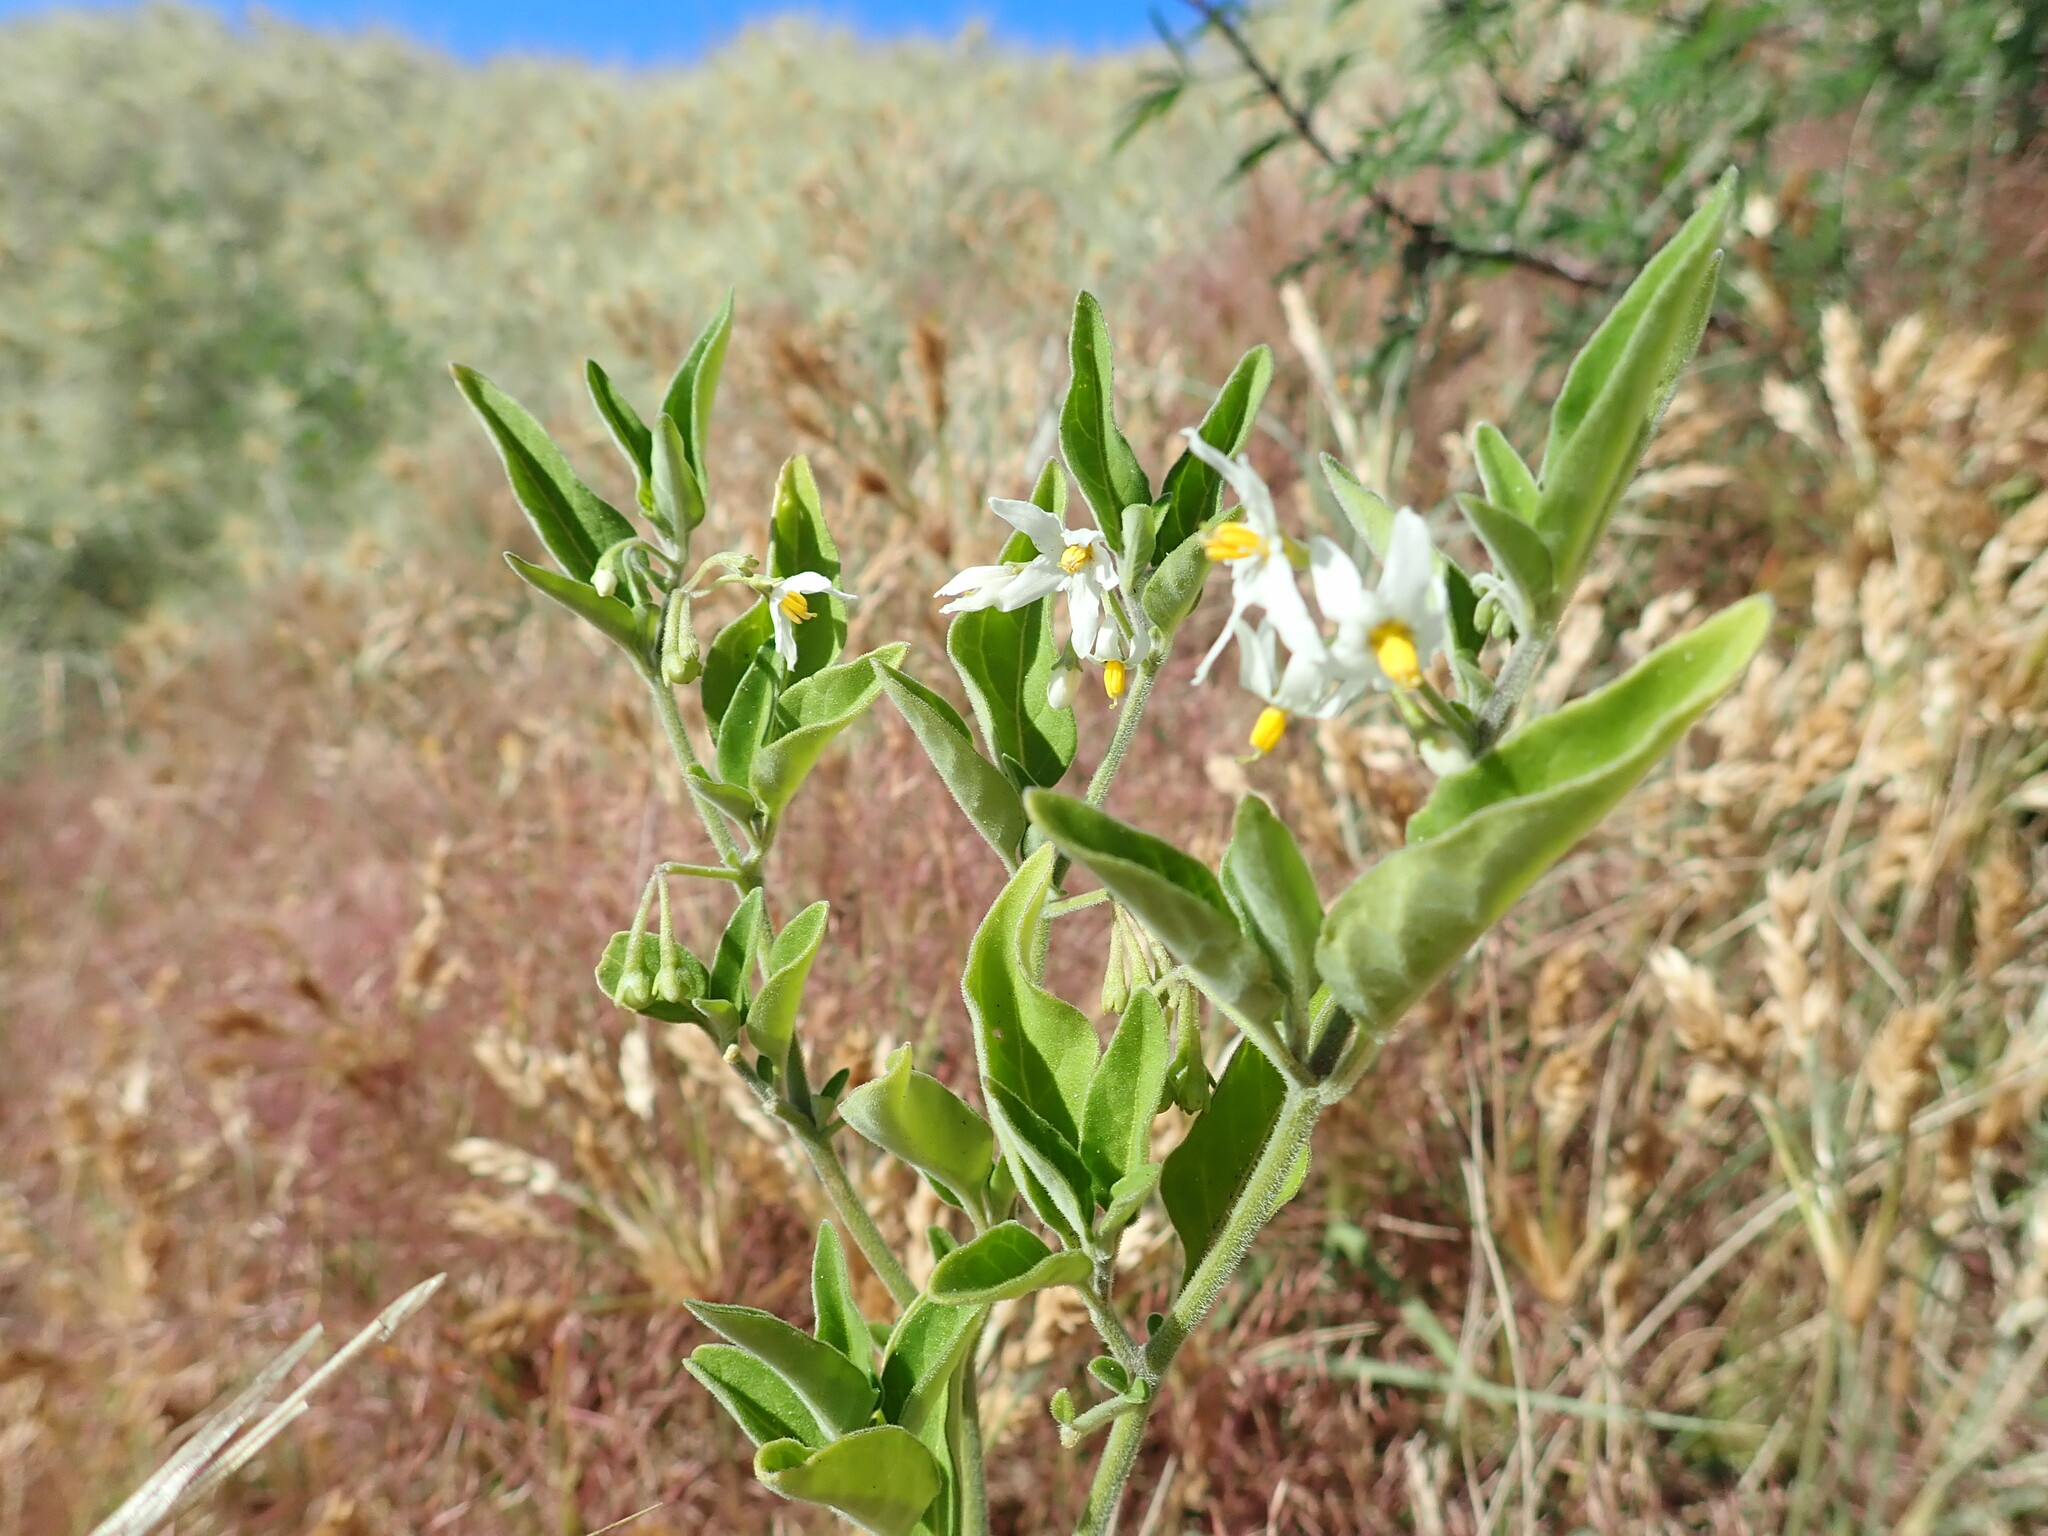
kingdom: Plantae
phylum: Tracheophyta
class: Magnoliopsida
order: Solanales
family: Solanaceae
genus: Solanum
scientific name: Solanum chenopodioides
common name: Tall nightshade
